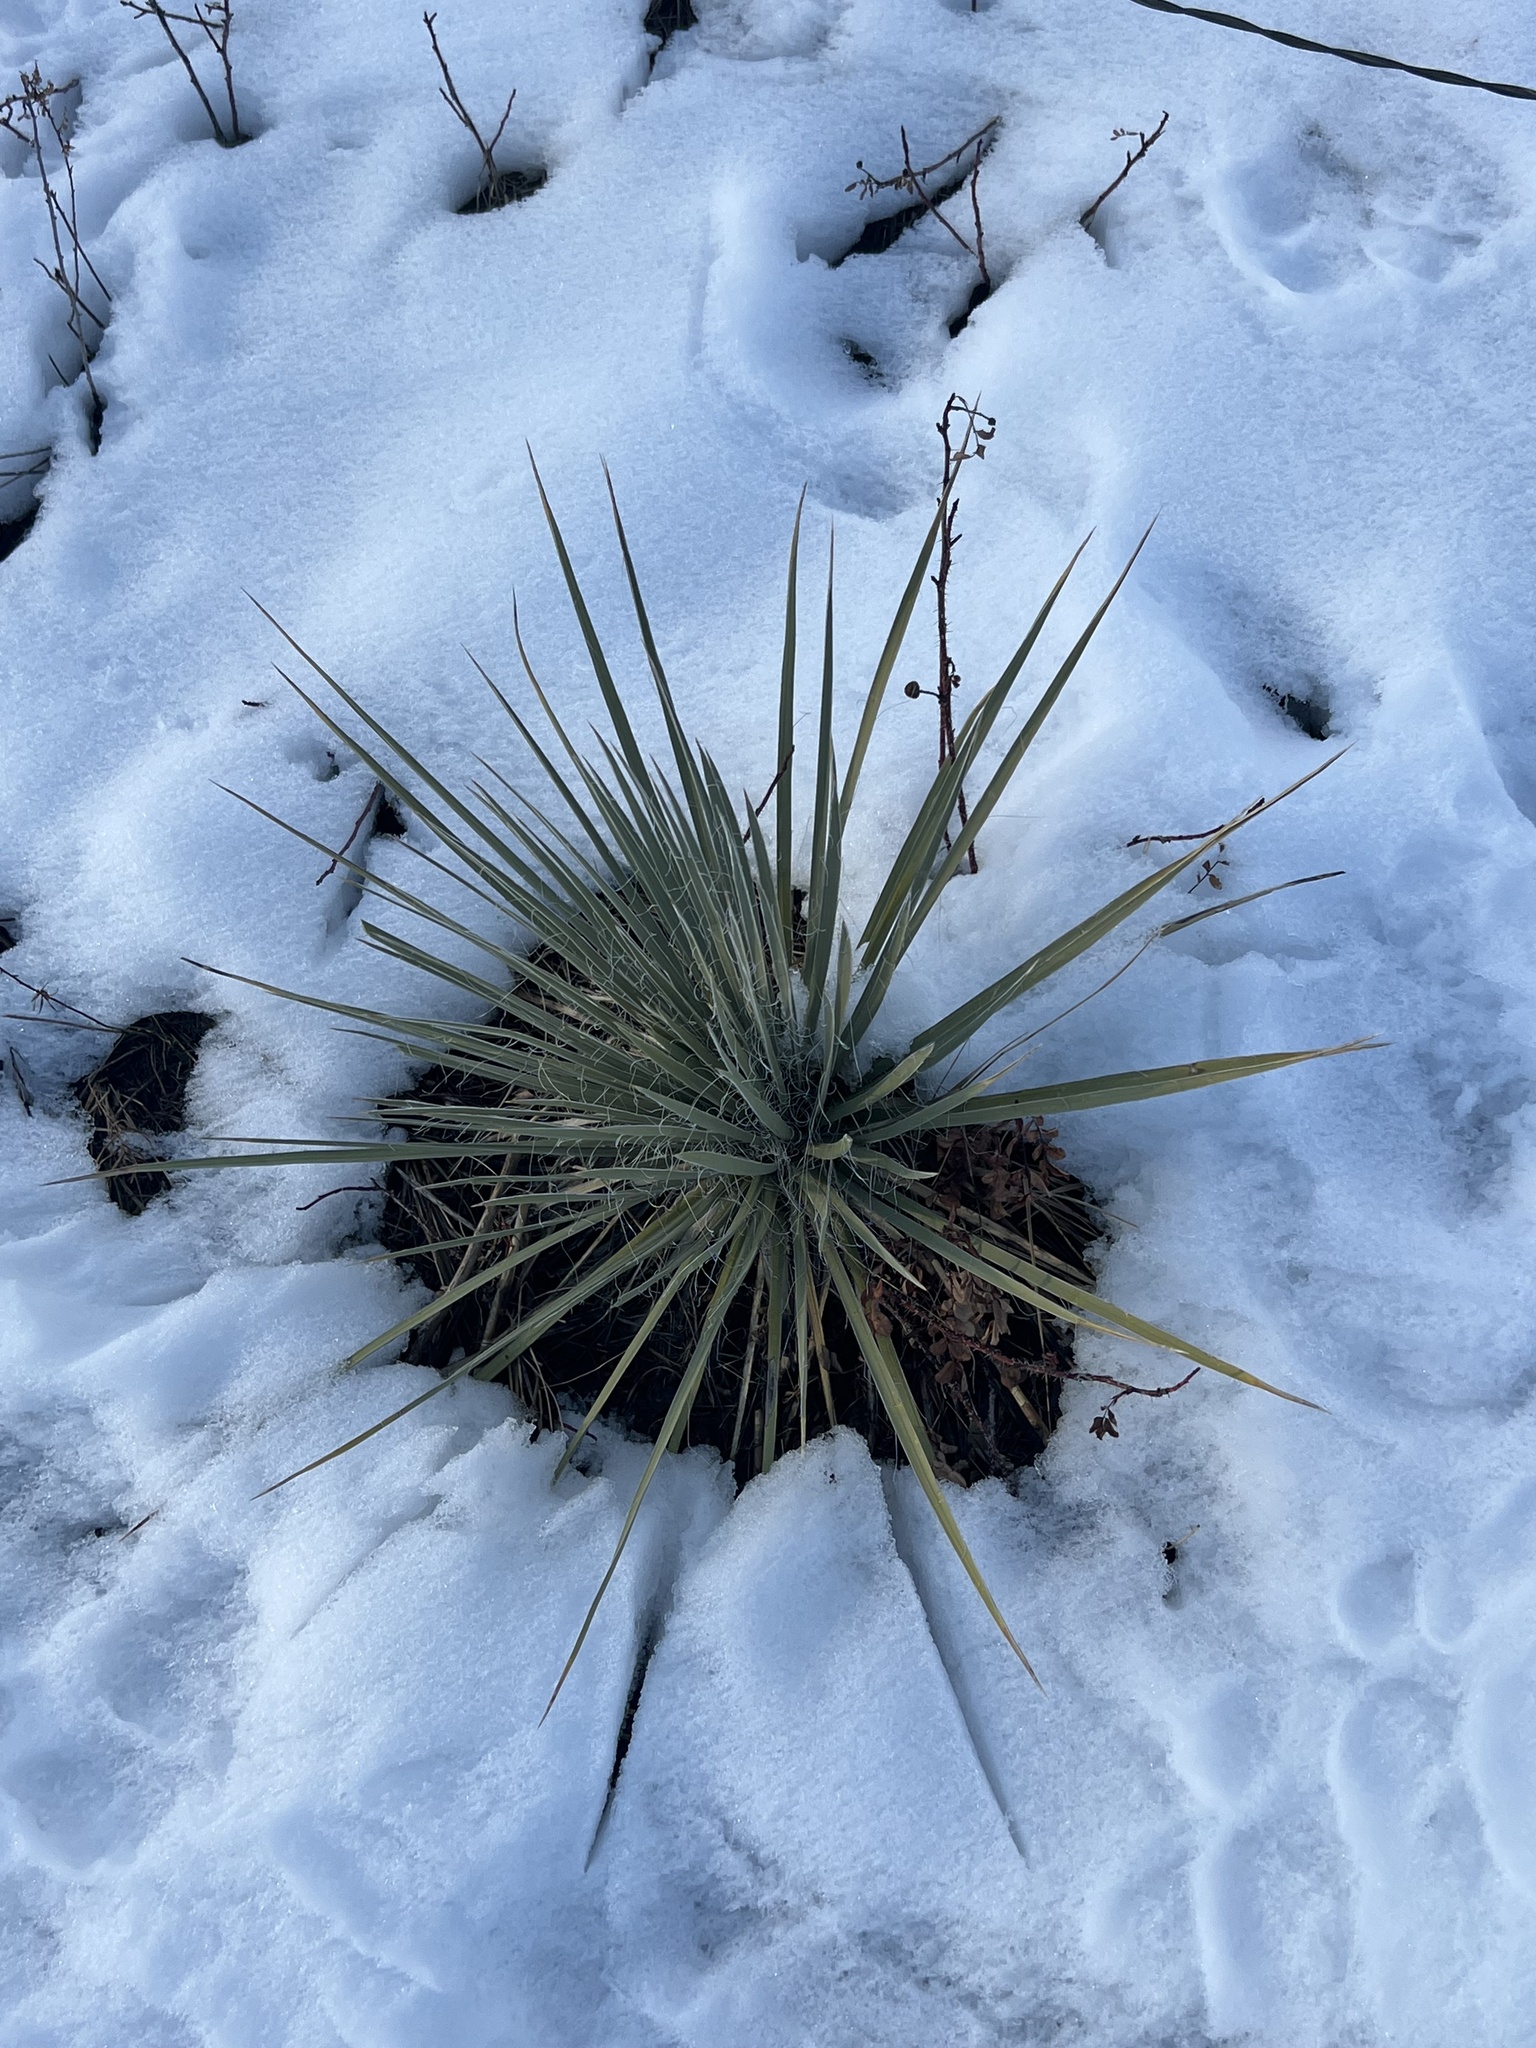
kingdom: Plantae
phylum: Tracheophyta
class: Liliopsida
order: Asparagales
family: Asparagaceae
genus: Yucca
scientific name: Yucca glauca
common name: Great plains yucca
